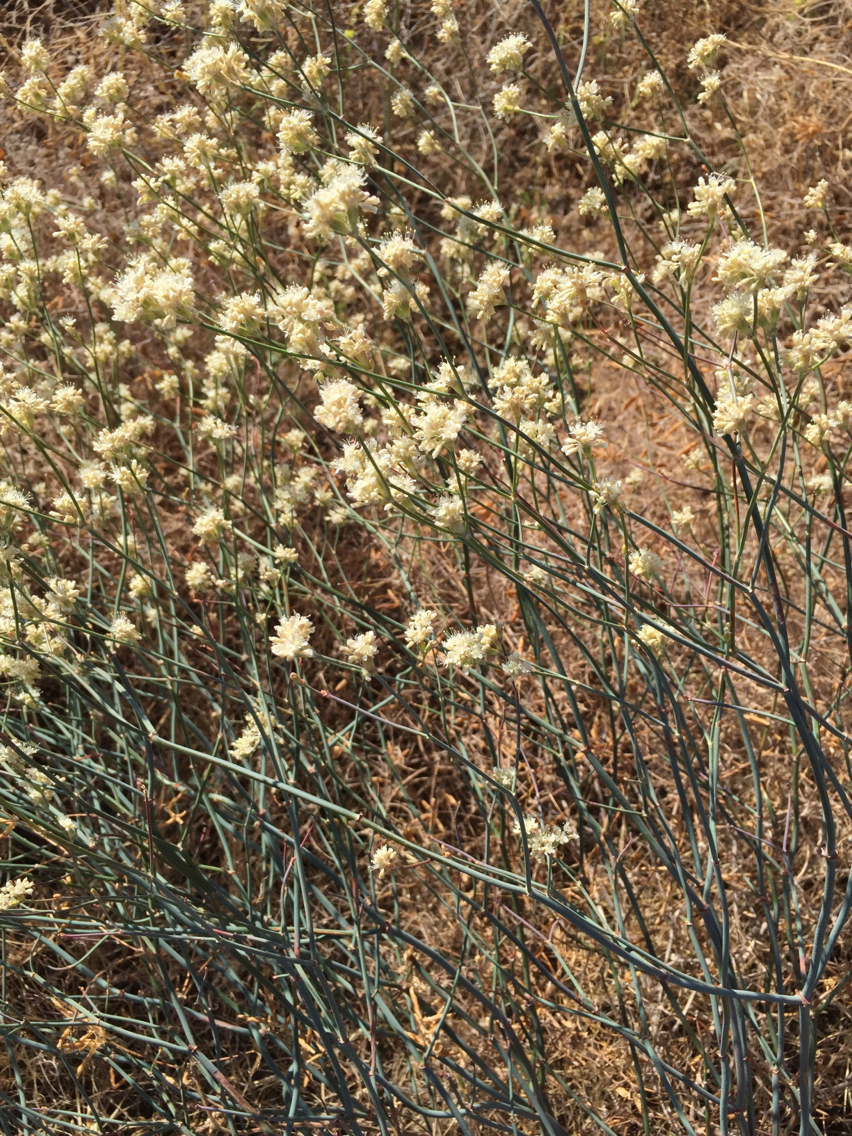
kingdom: Plantae
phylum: Tracheophyta
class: Magnoliopsida
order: Caryophyllales
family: Polygonaceae
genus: Eriogonum
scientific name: Eriogonum nudum
